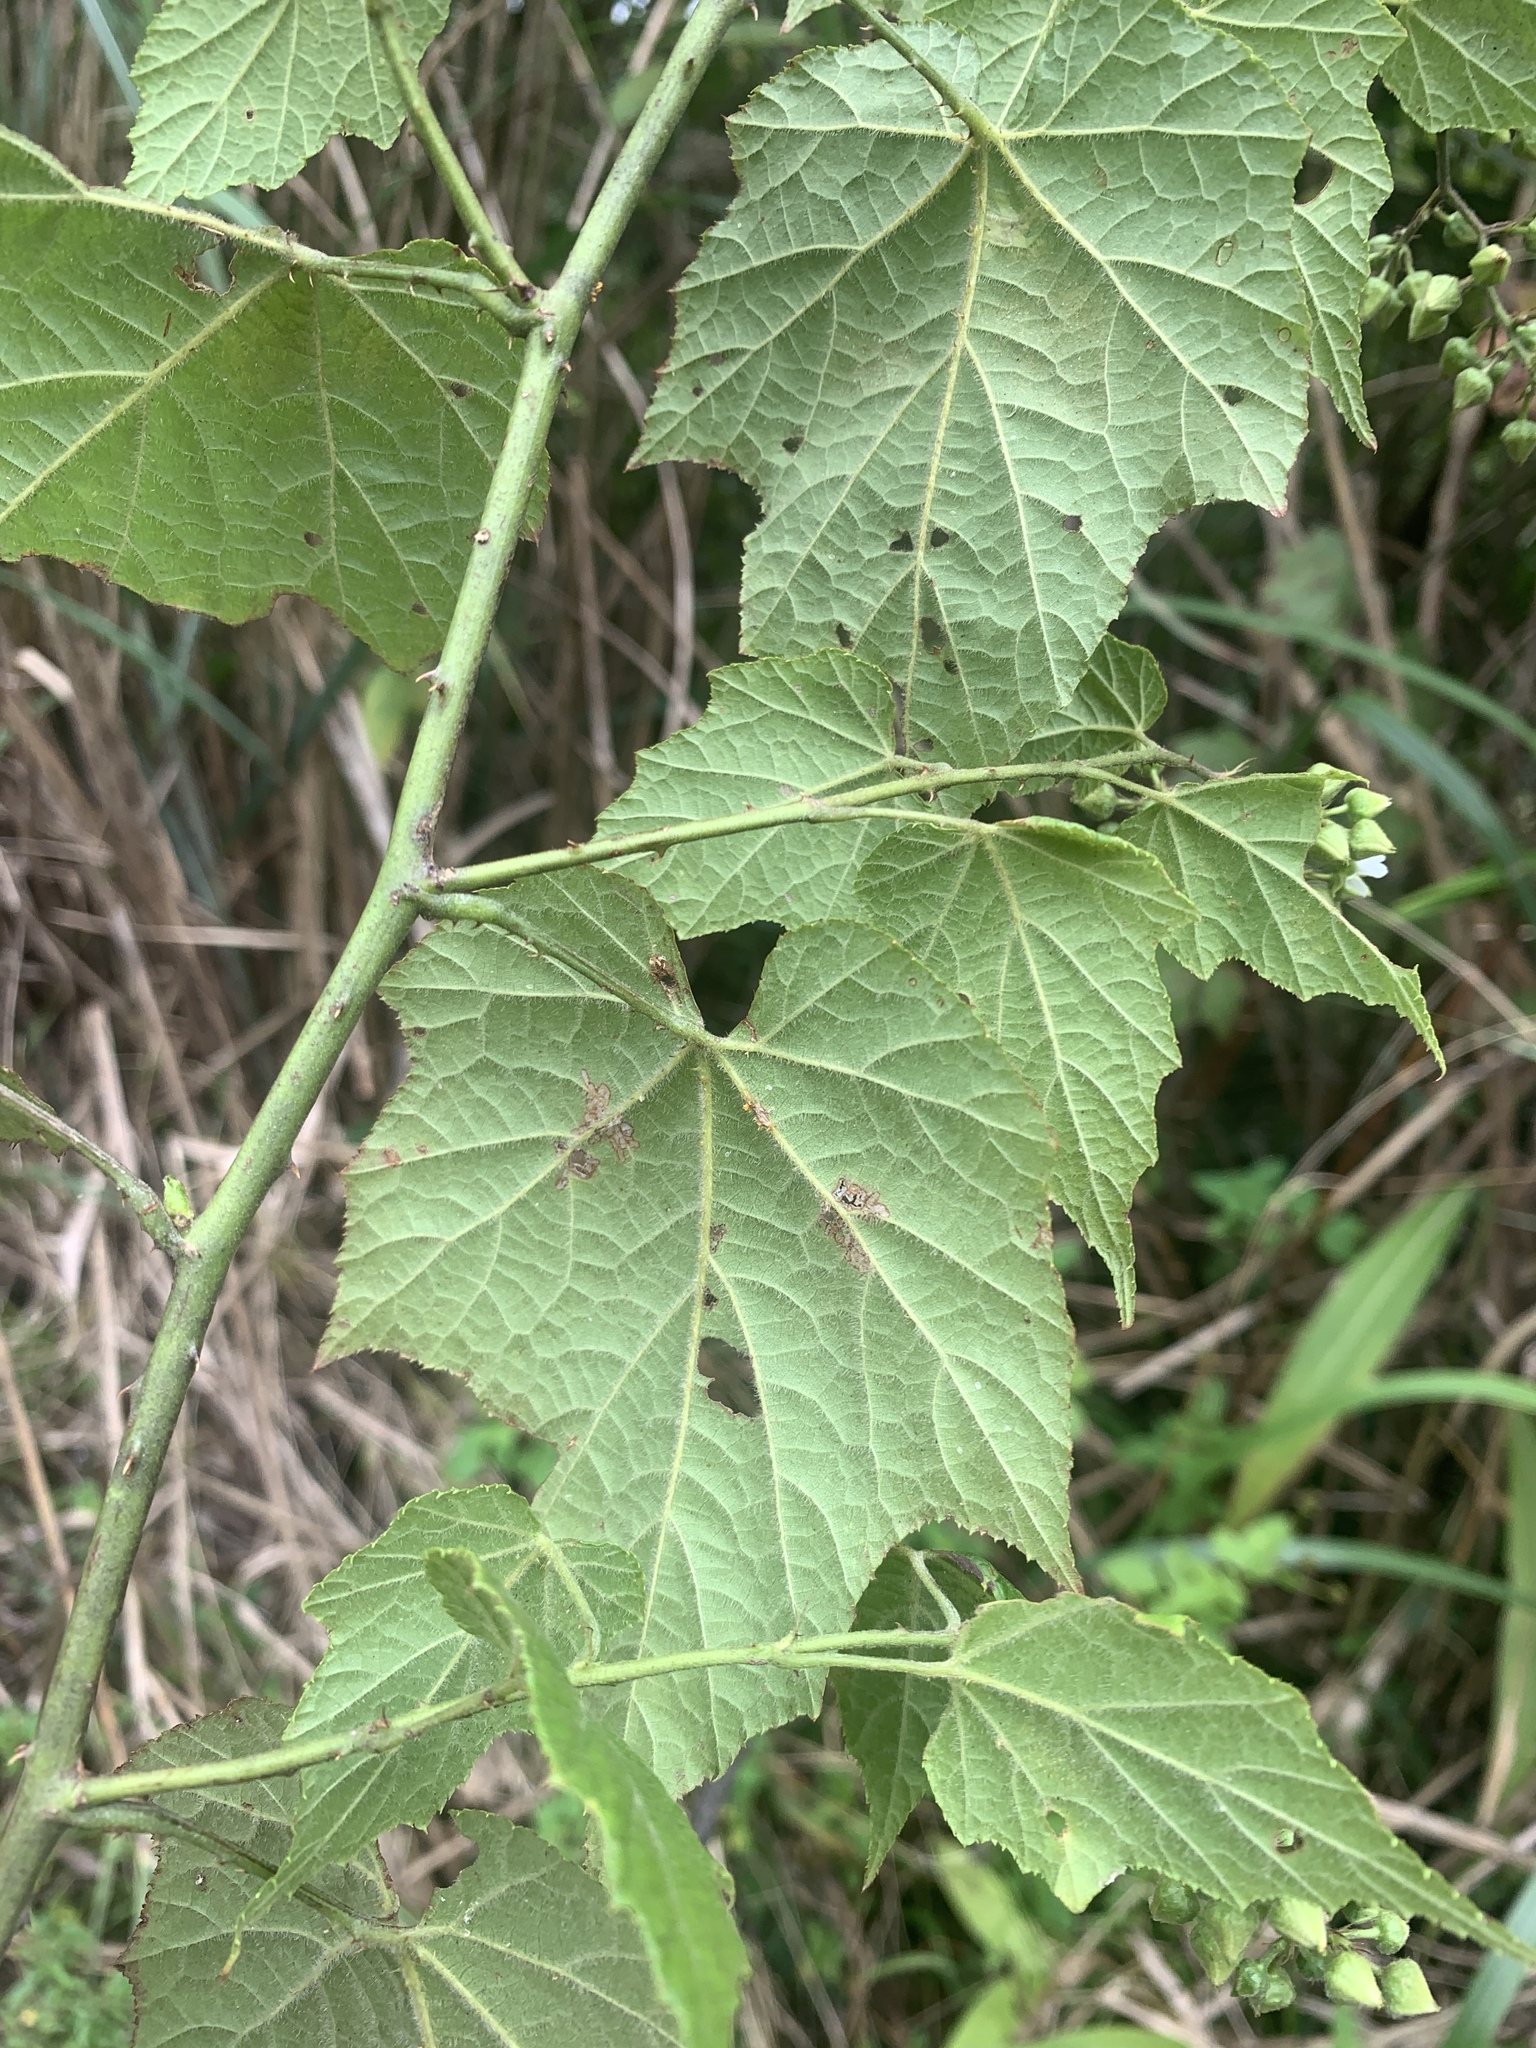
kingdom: Plantae
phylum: Tracheophyta
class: Magnoliopsida
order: Rosales
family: Rosaceae
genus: Rubus
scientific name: Rubus lambertianus
